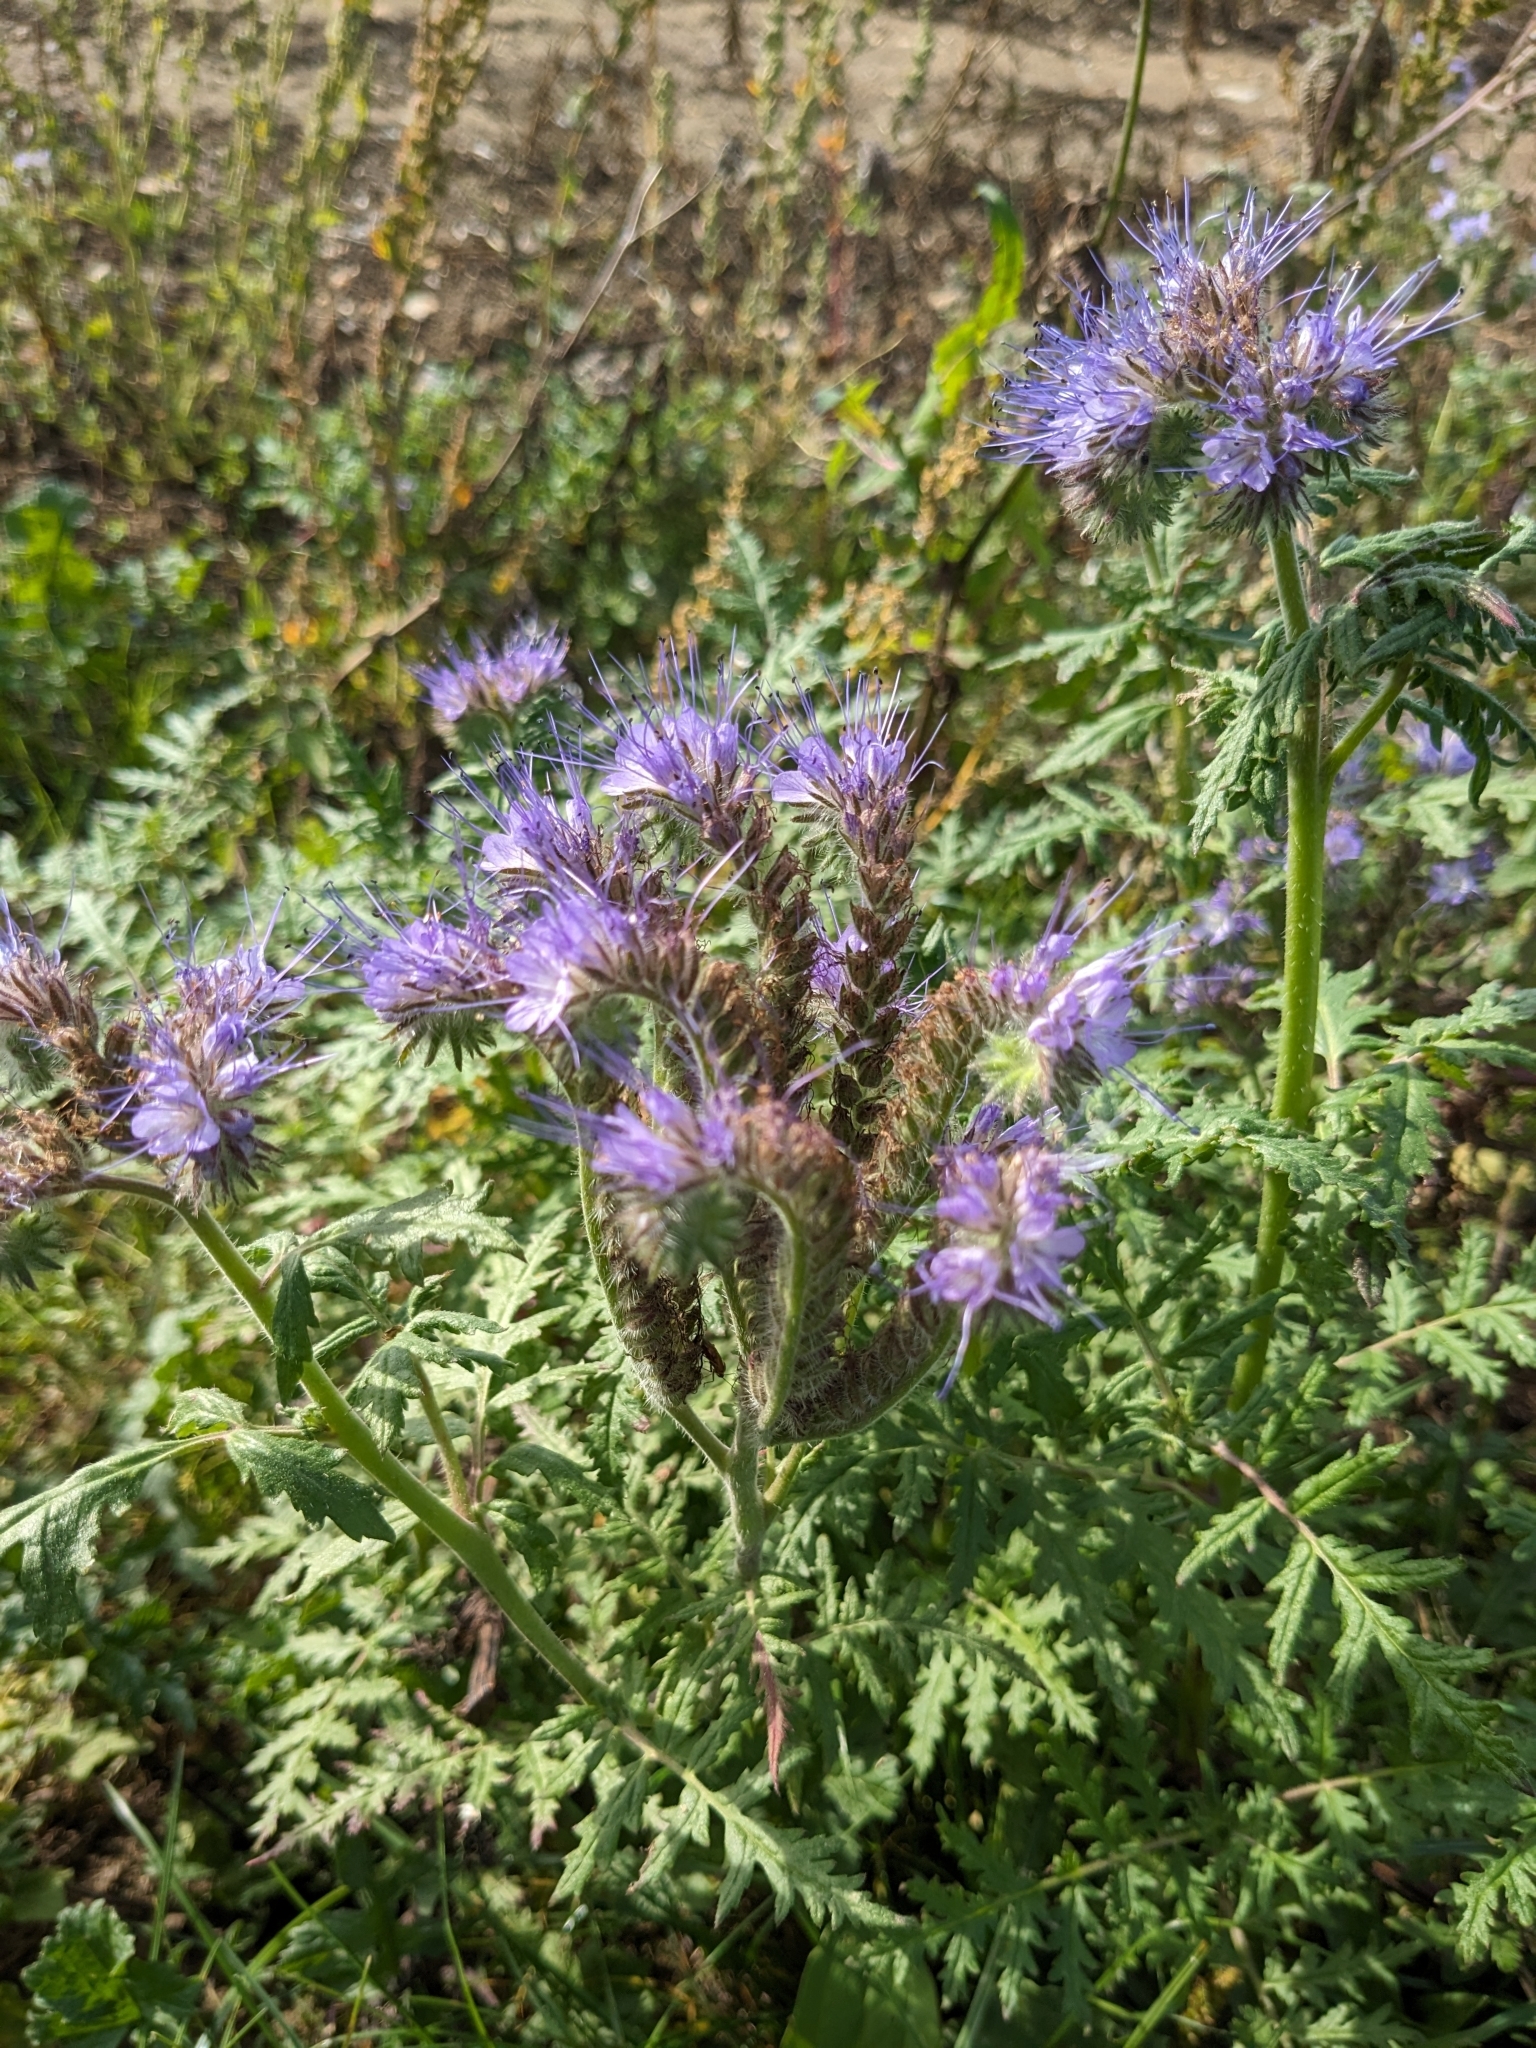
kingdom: Plantae
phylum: Tracheophyta
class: Magnoliopsida
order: Boraginales
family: Hydrophyllaceae
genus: Phacelia
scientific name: Phacelia tanacetifolia
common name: Phacelia
